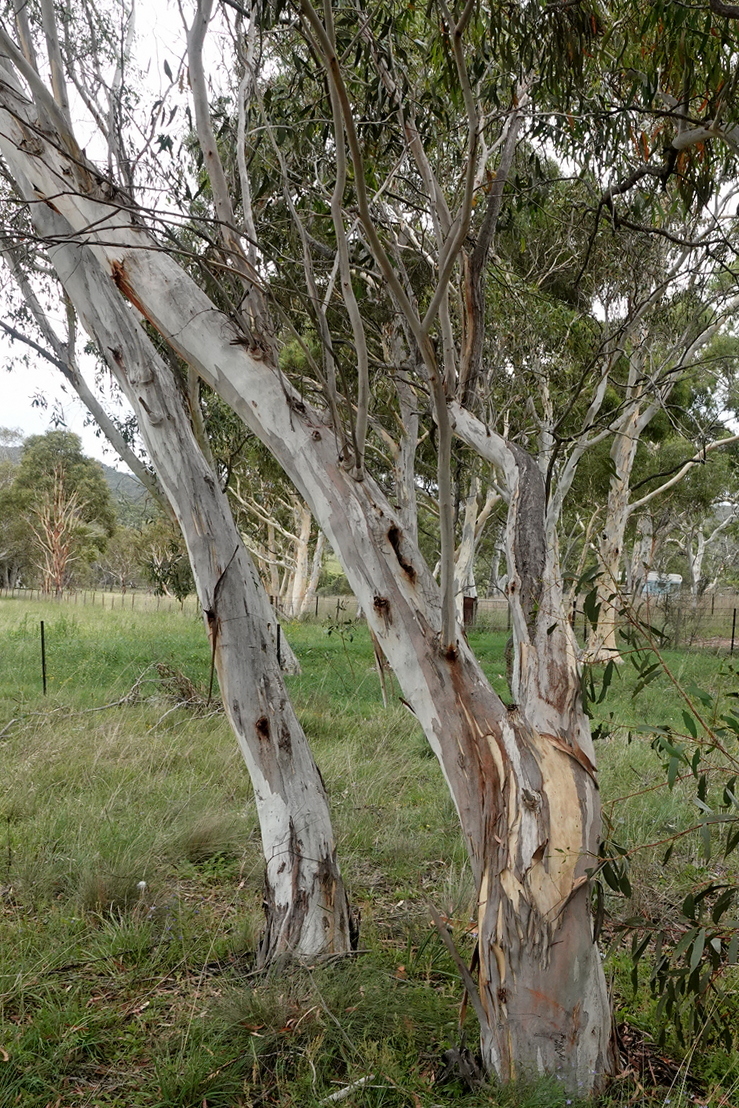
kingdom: Plantae
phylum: Tracheophyta
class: Magnoliopsida
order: Myrtales
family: Myrtaceae
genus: Eucalyptus
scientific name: Eucalyptus pauciflora
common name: Snow gum
